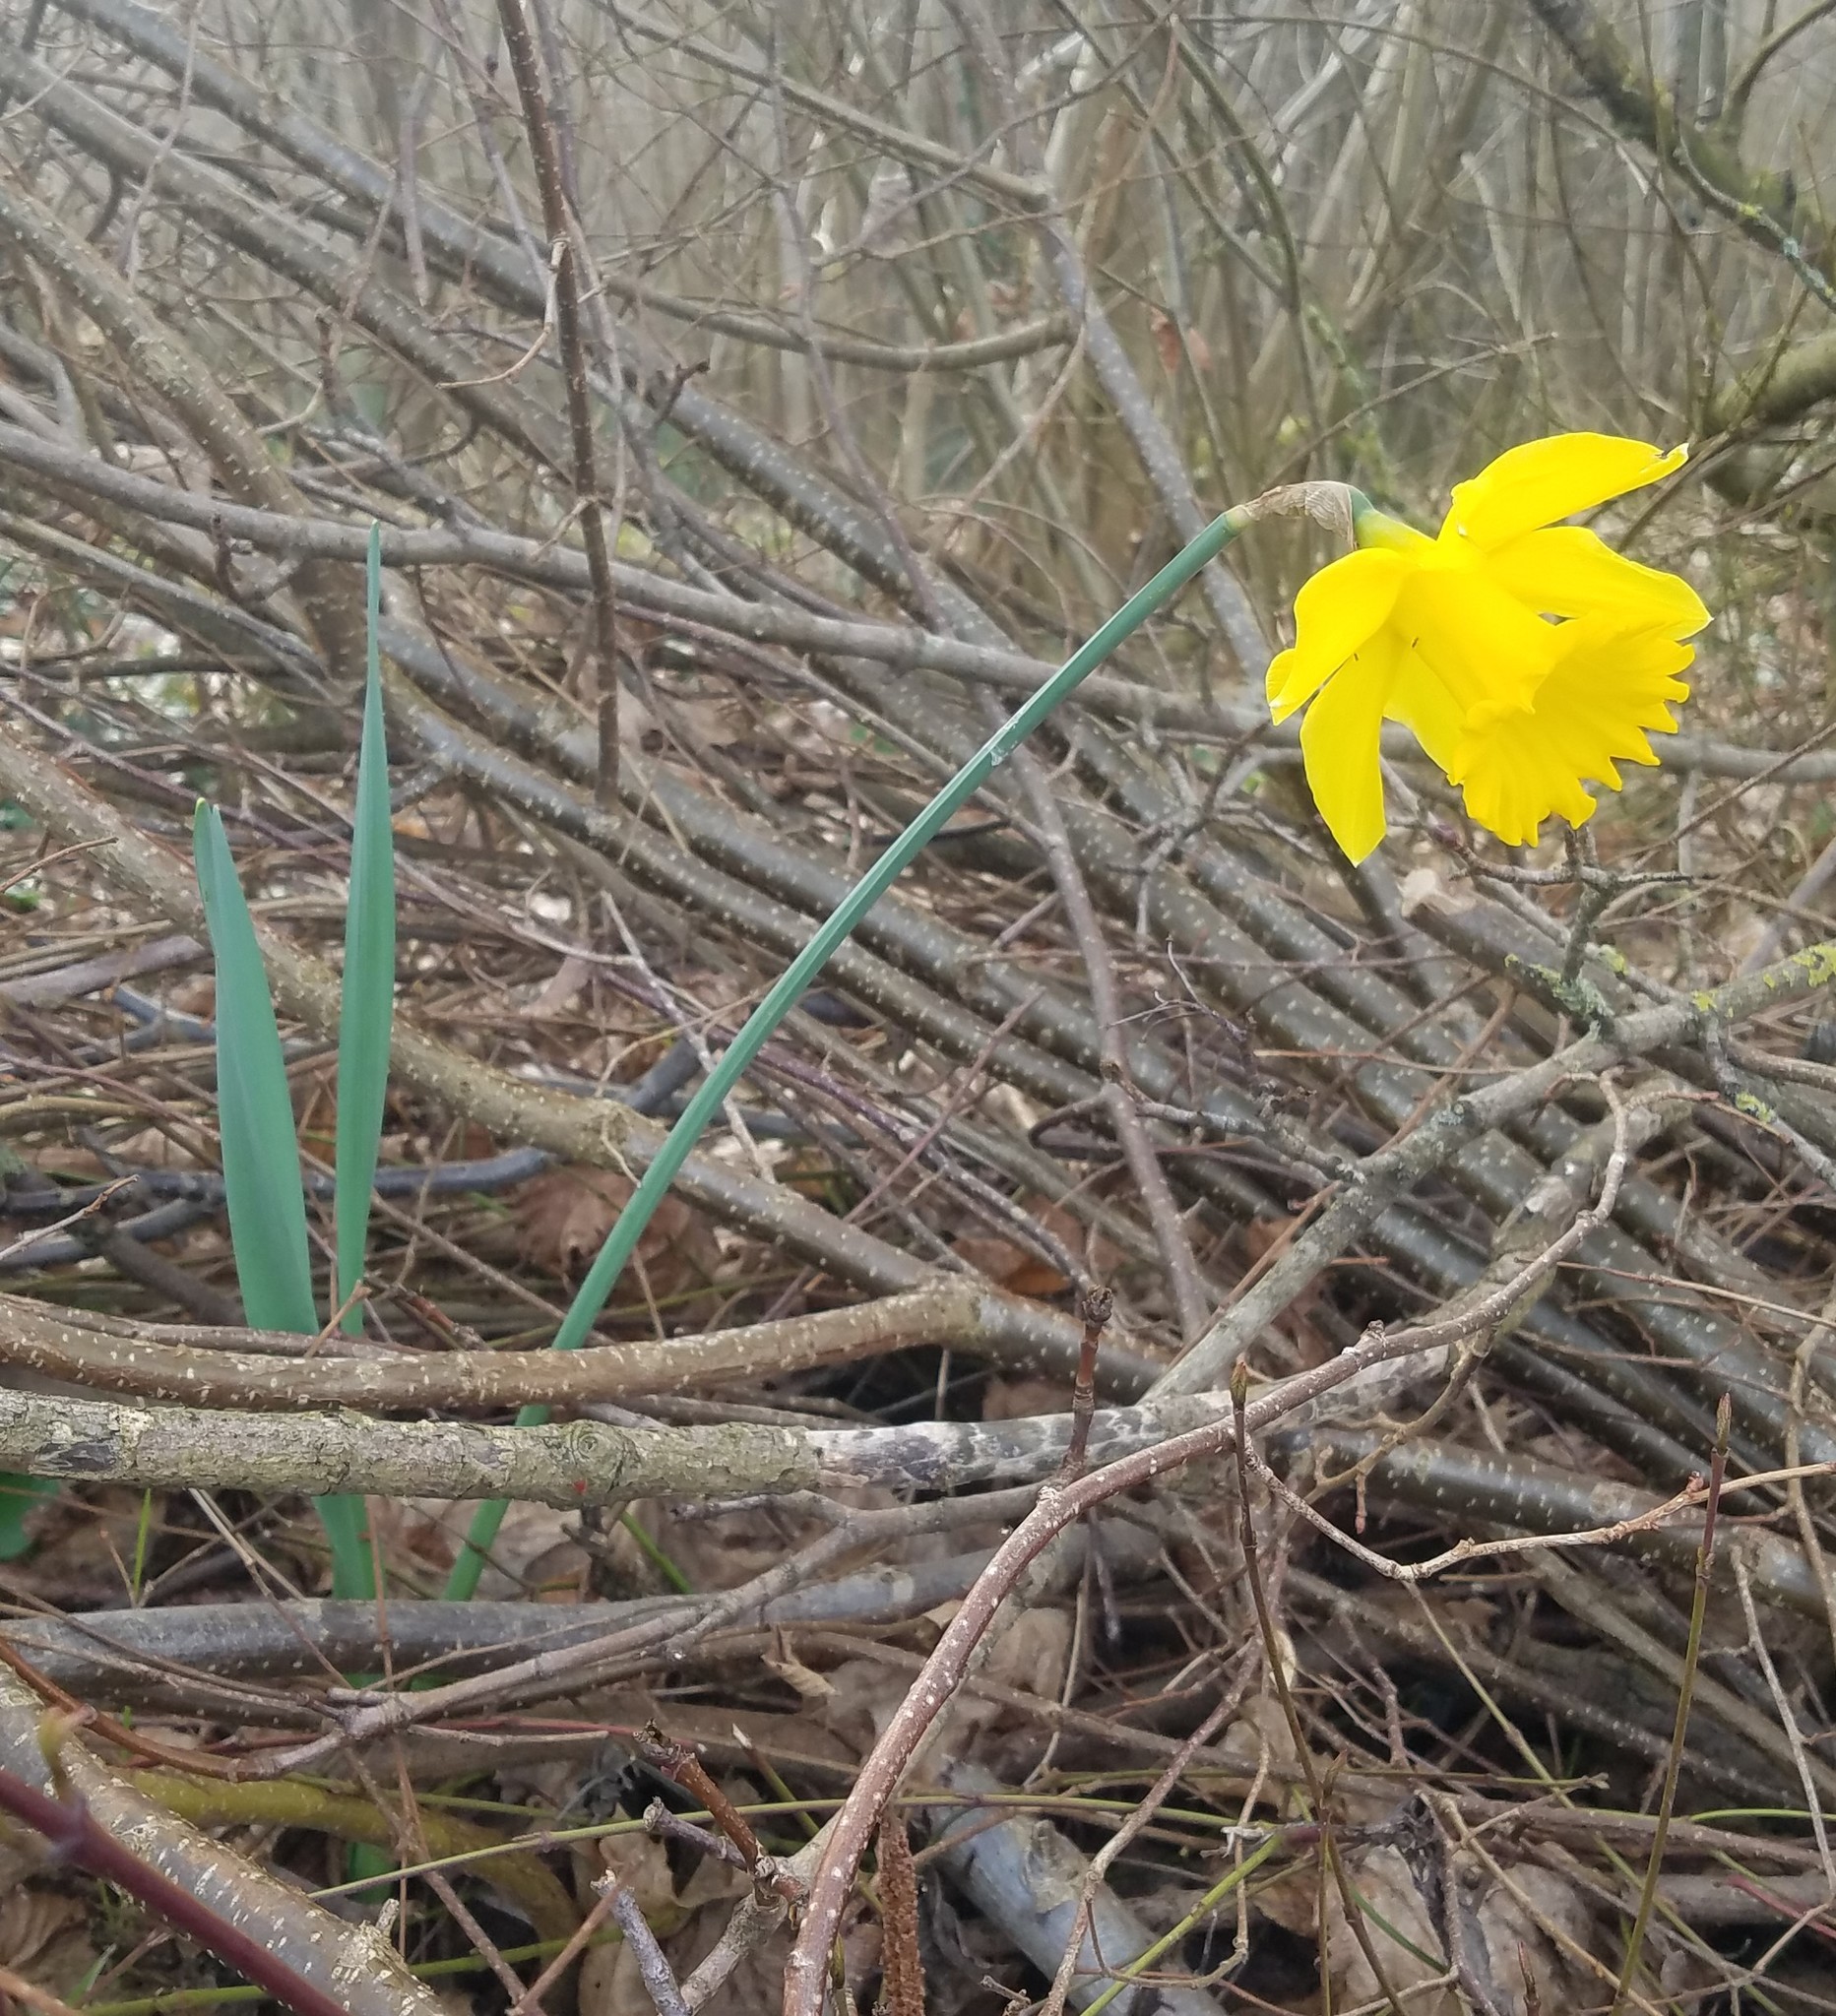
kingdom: Plantae
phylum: Tracheophyta
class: Liliopsida
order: Asparagales
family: Amaryllidaceae
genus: Narcissus
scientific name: Narcissus pseudonarcissus
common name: Daffodil
